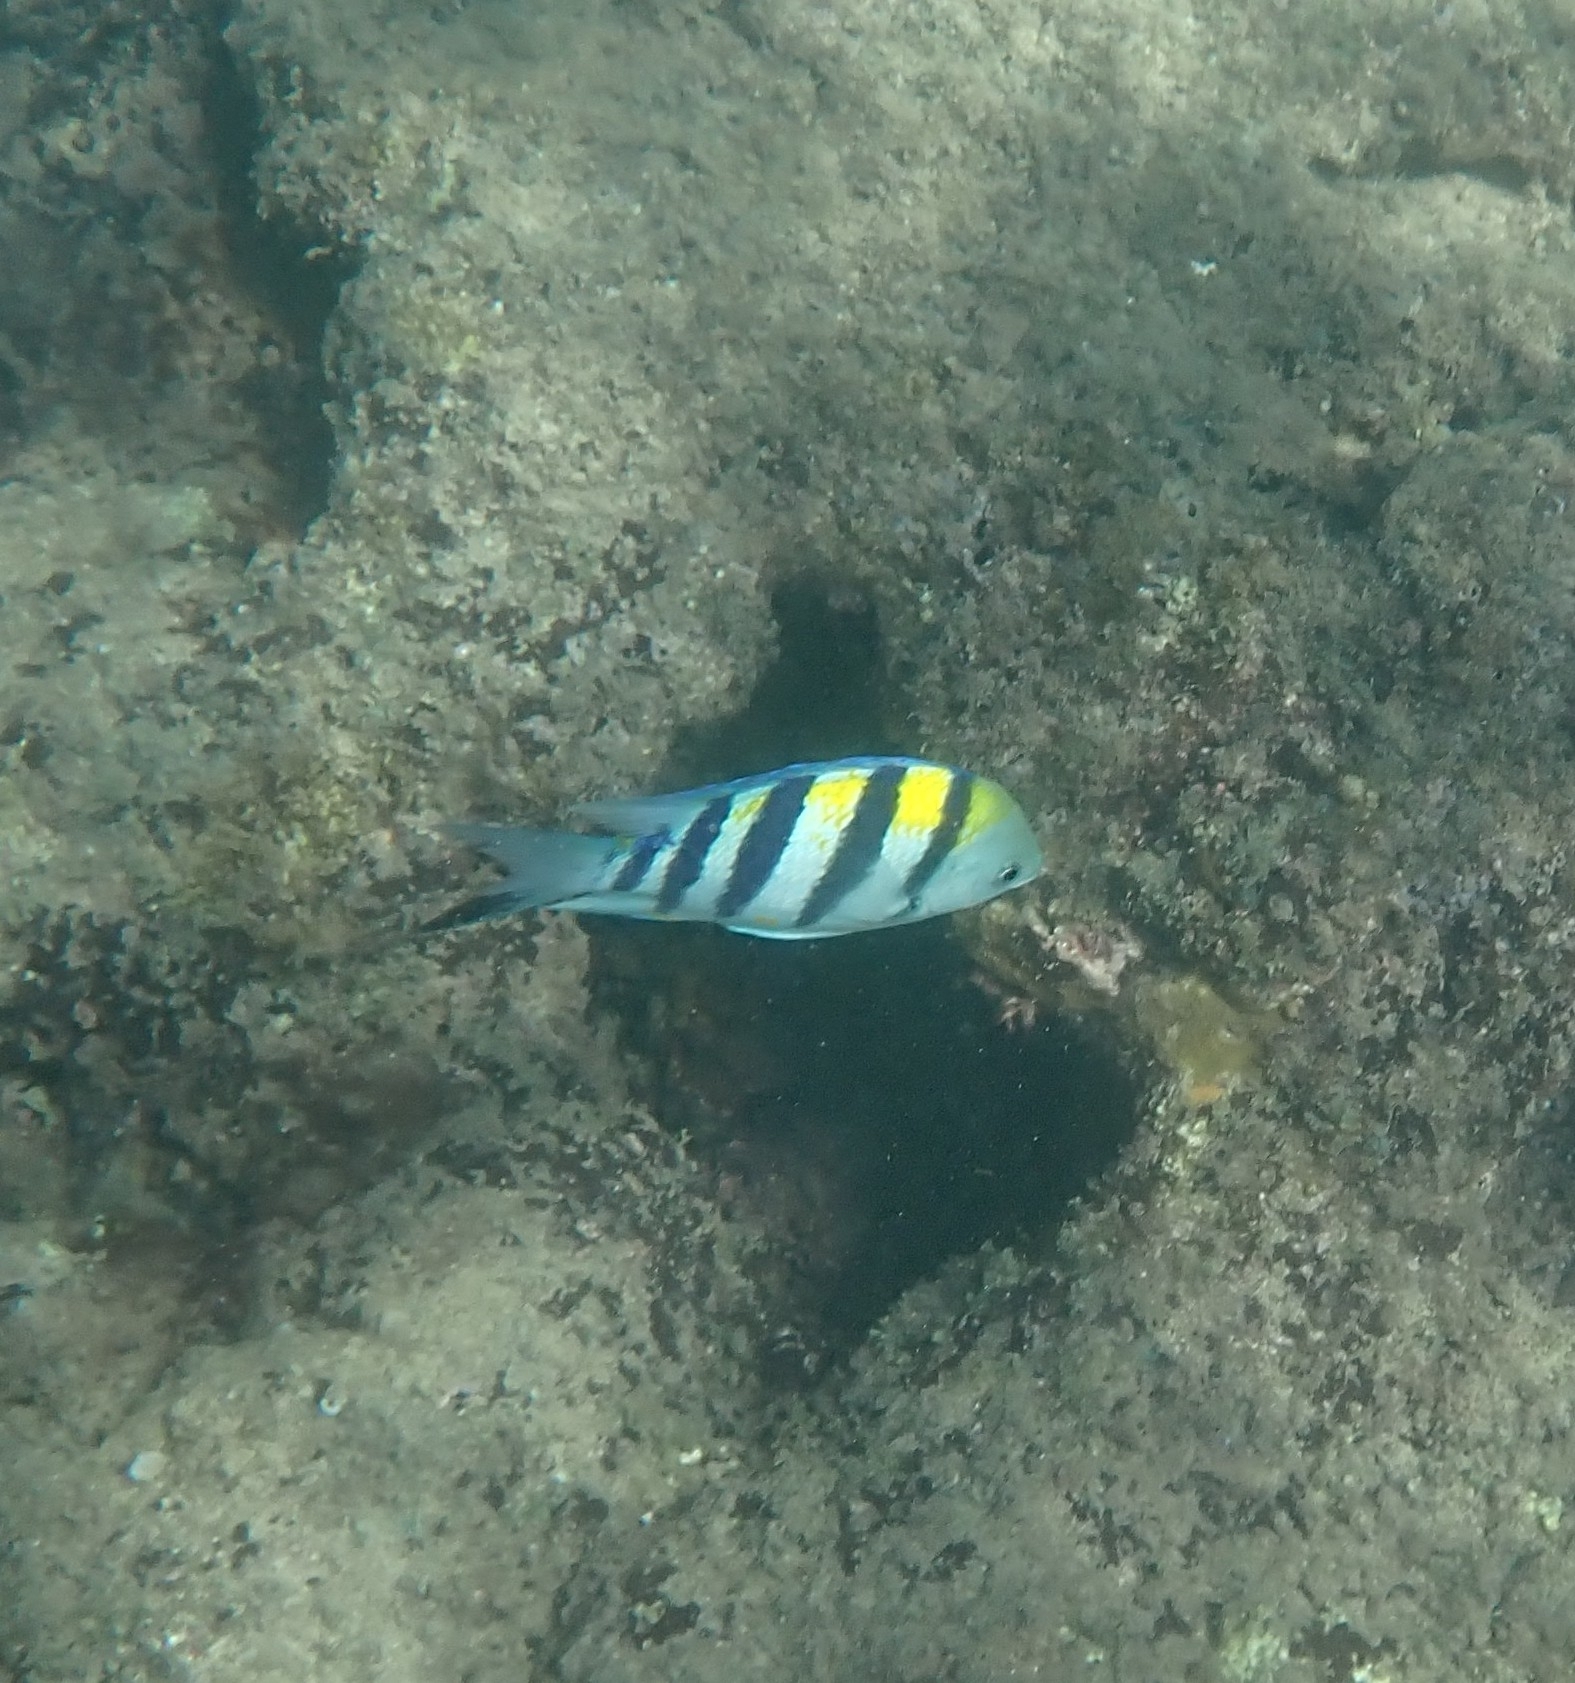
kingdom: Animalia
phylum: Chordata
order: Perciformes
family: Pomacentridae
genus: Abudefduf
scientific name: Abudefduf vaigiensis
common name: Indo-pacific sergeant
